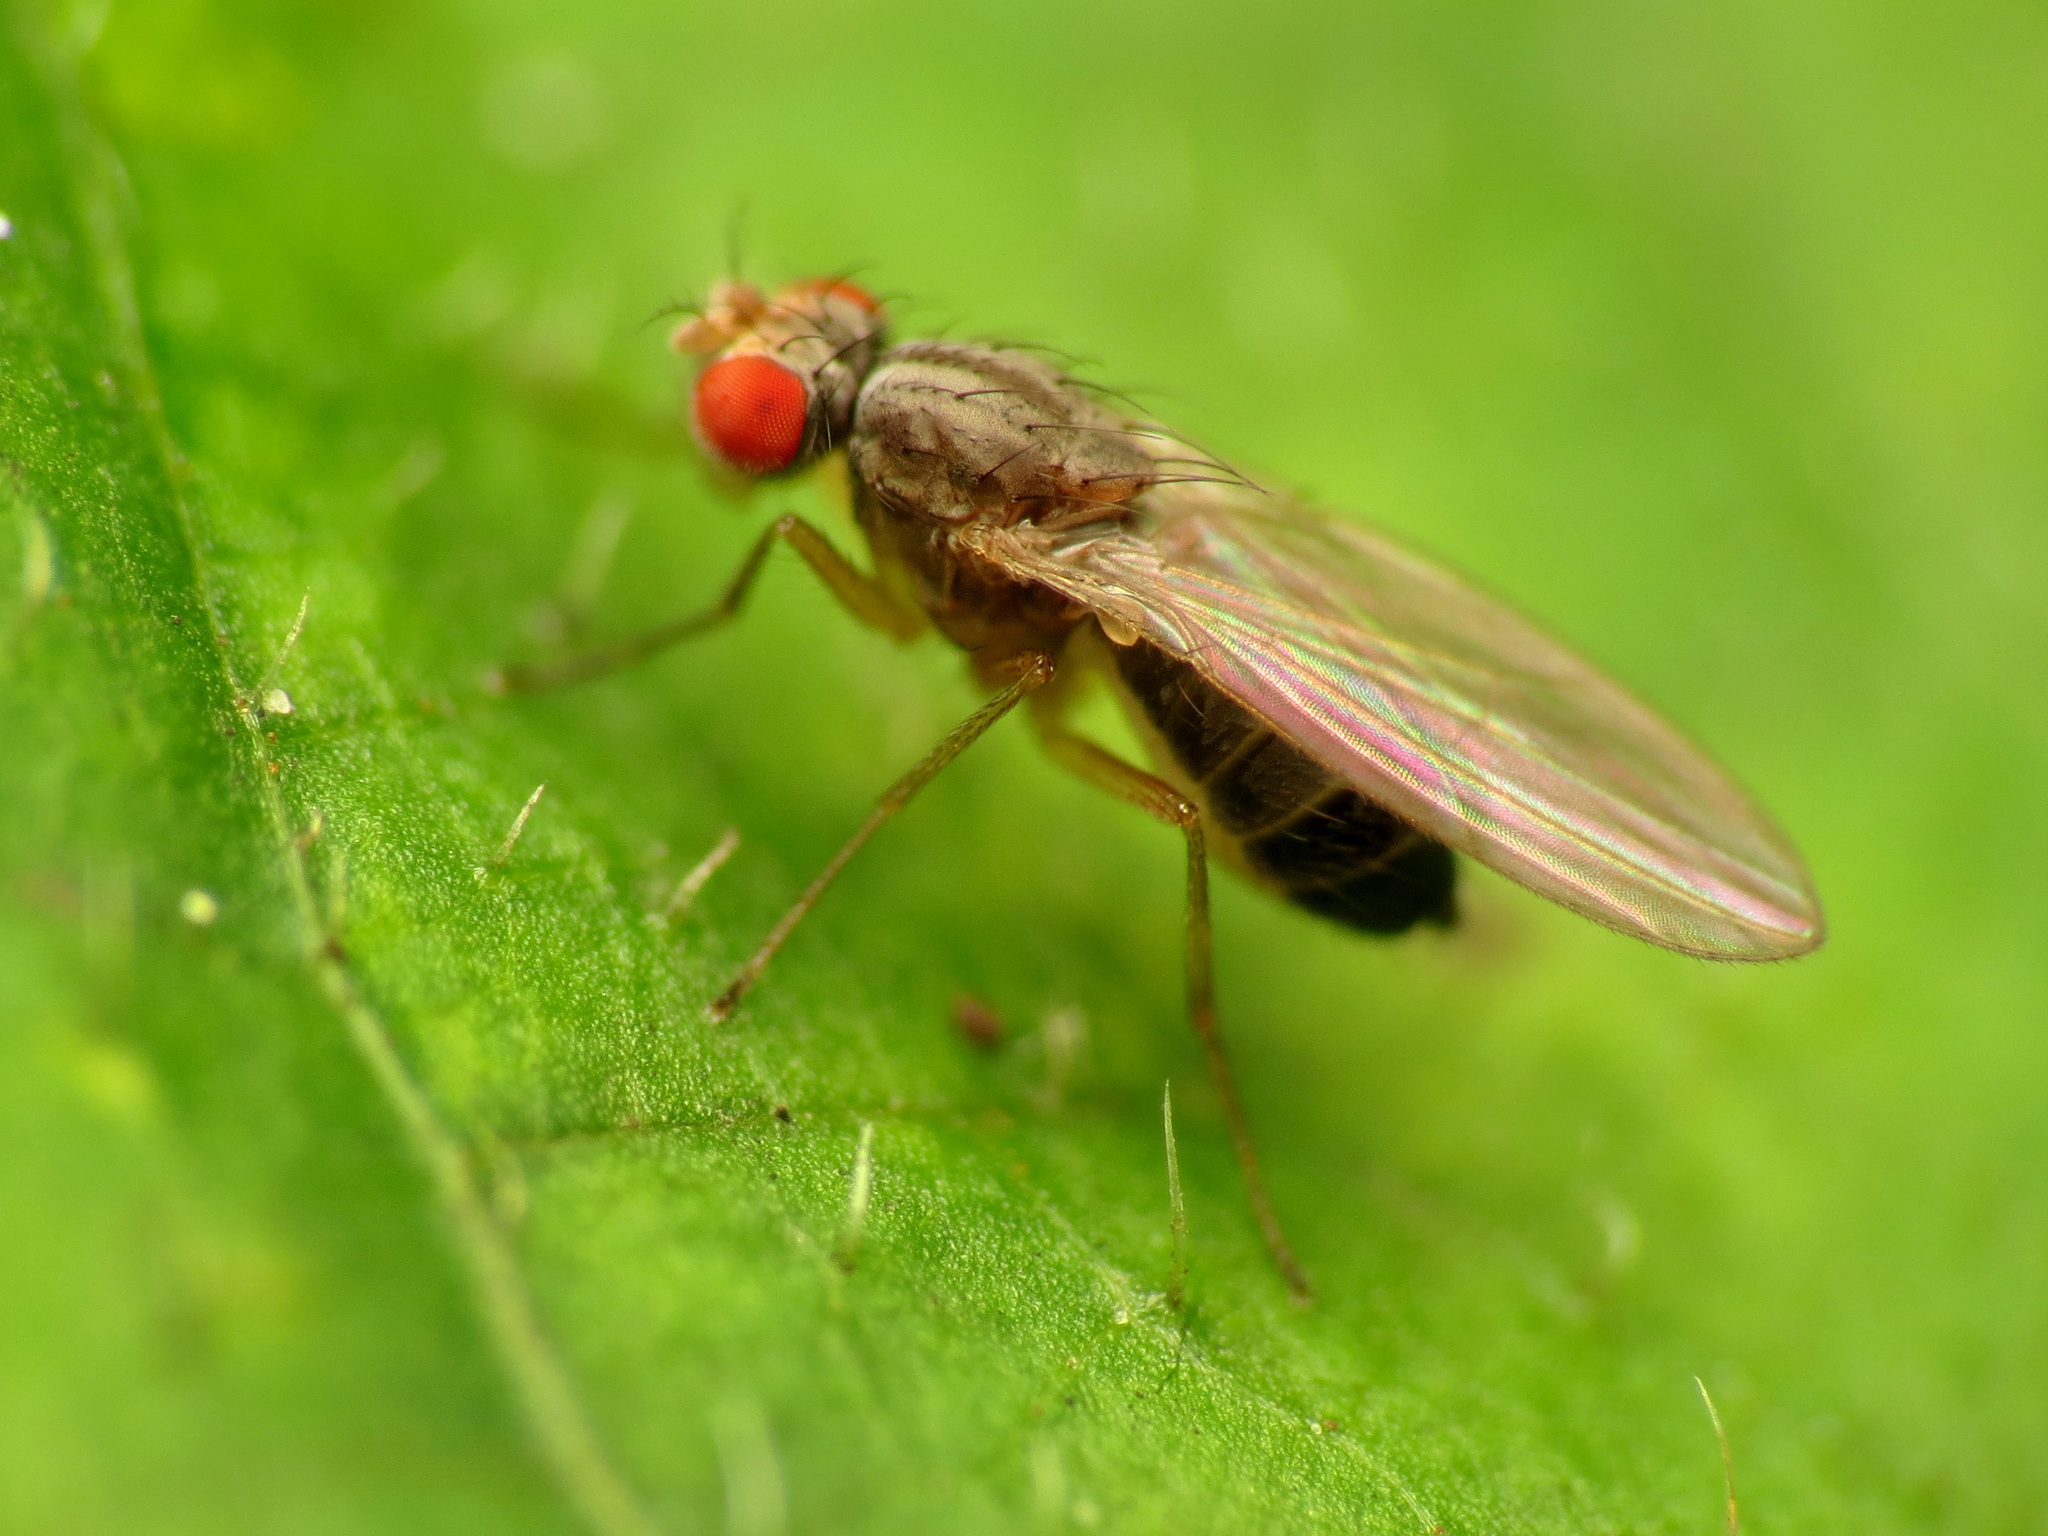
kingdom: Animalia
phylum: Arthropoda
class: Insecta
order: Diptera
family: Drosophilidae
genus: Scaptomyza
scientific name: Scaptomyza pallida
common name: Pomace fly
